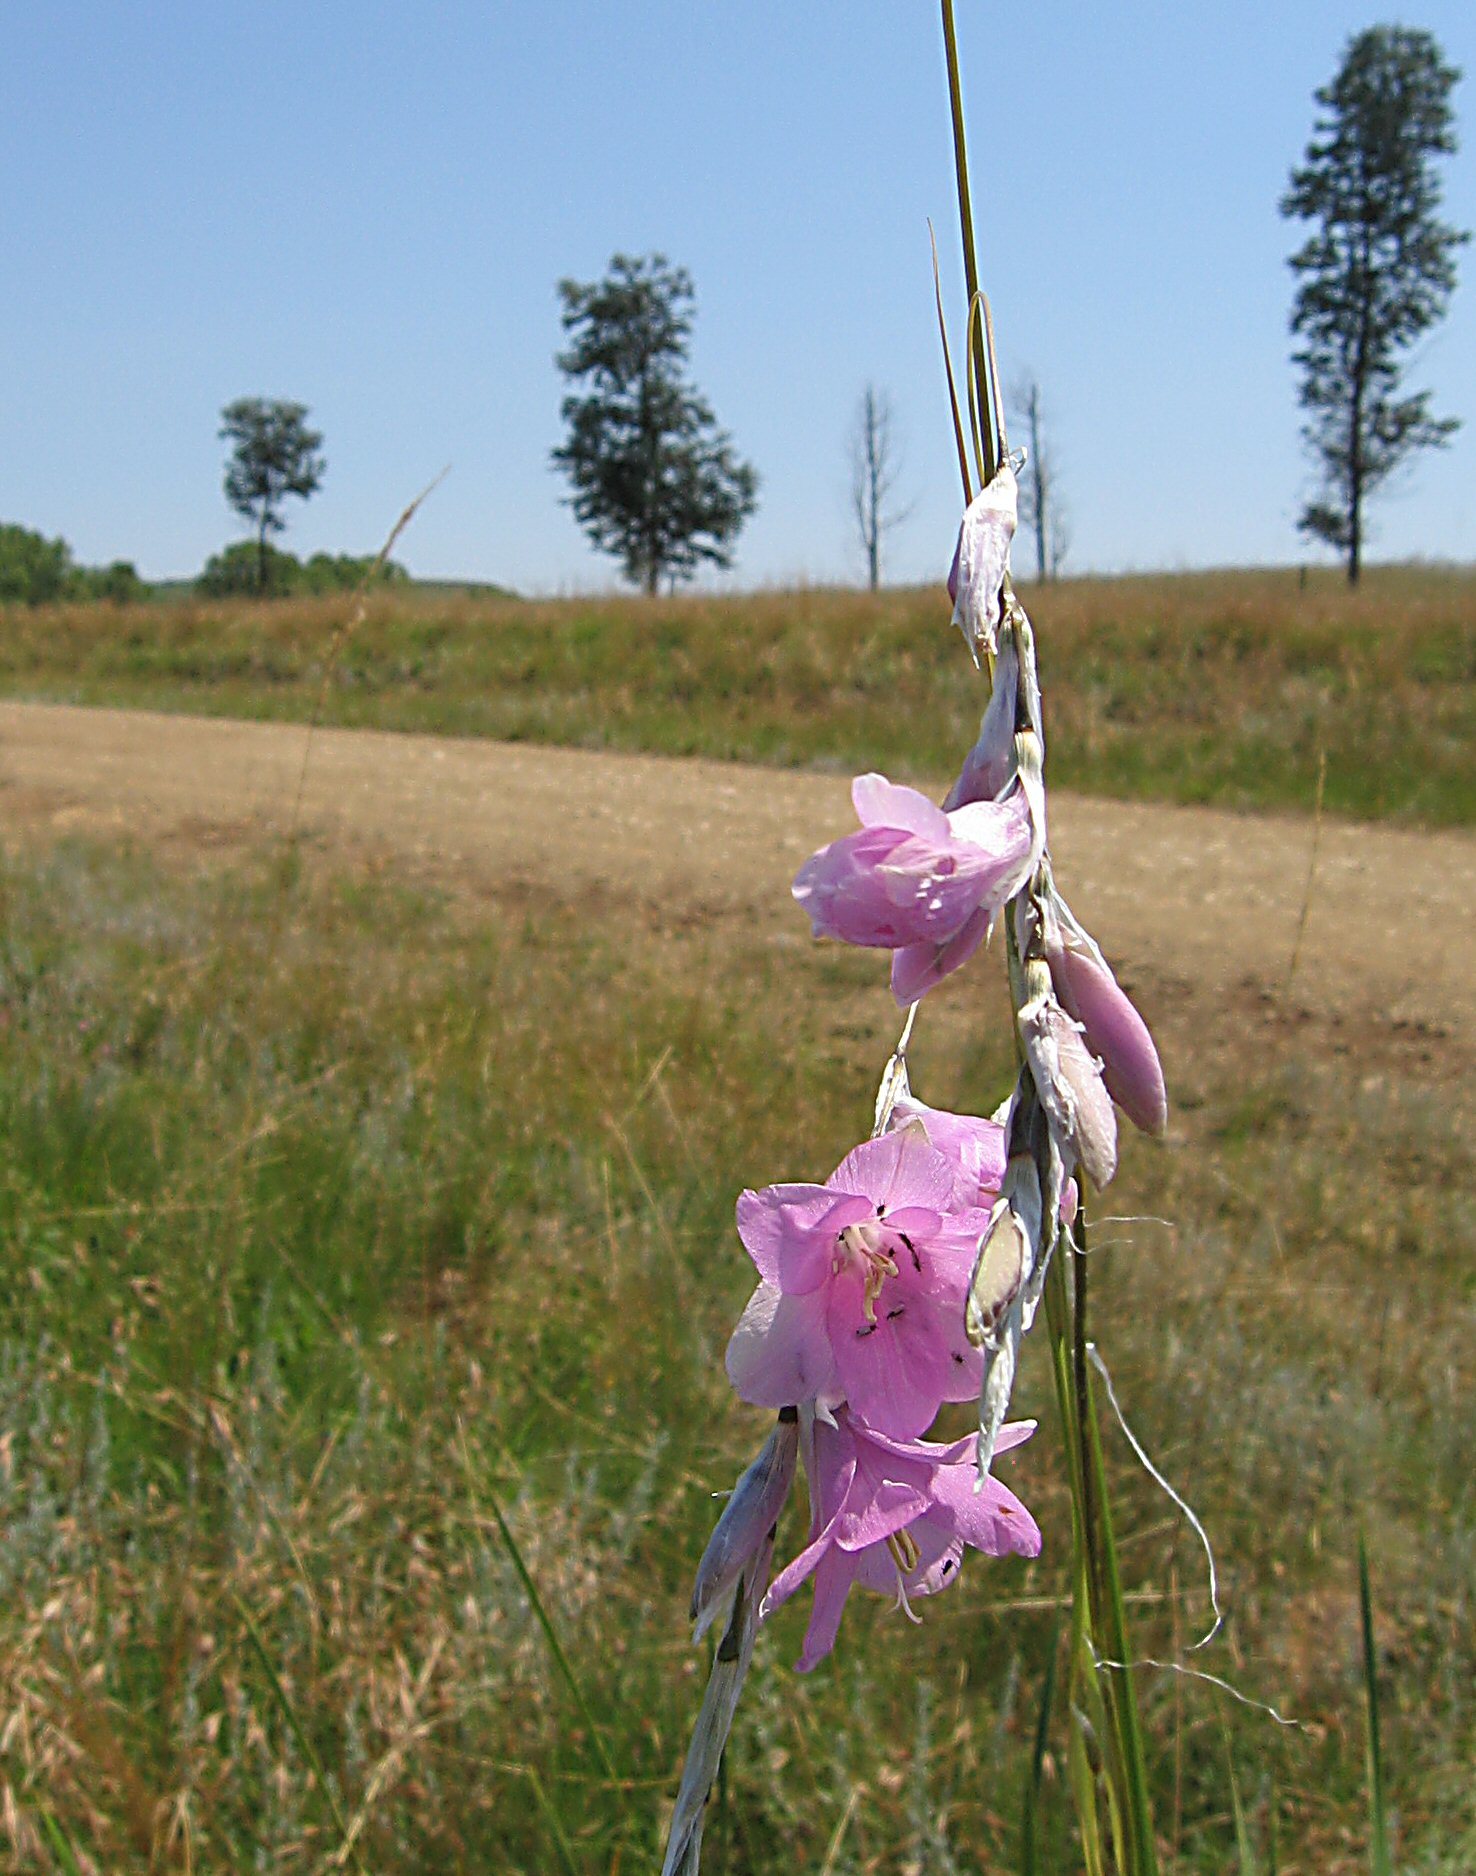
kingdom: Plantae
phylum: Tracheophyta
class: Liliopsida
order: Asparagales
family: Iridaceae
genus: Dierama
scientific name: Dierama pauciflorum
